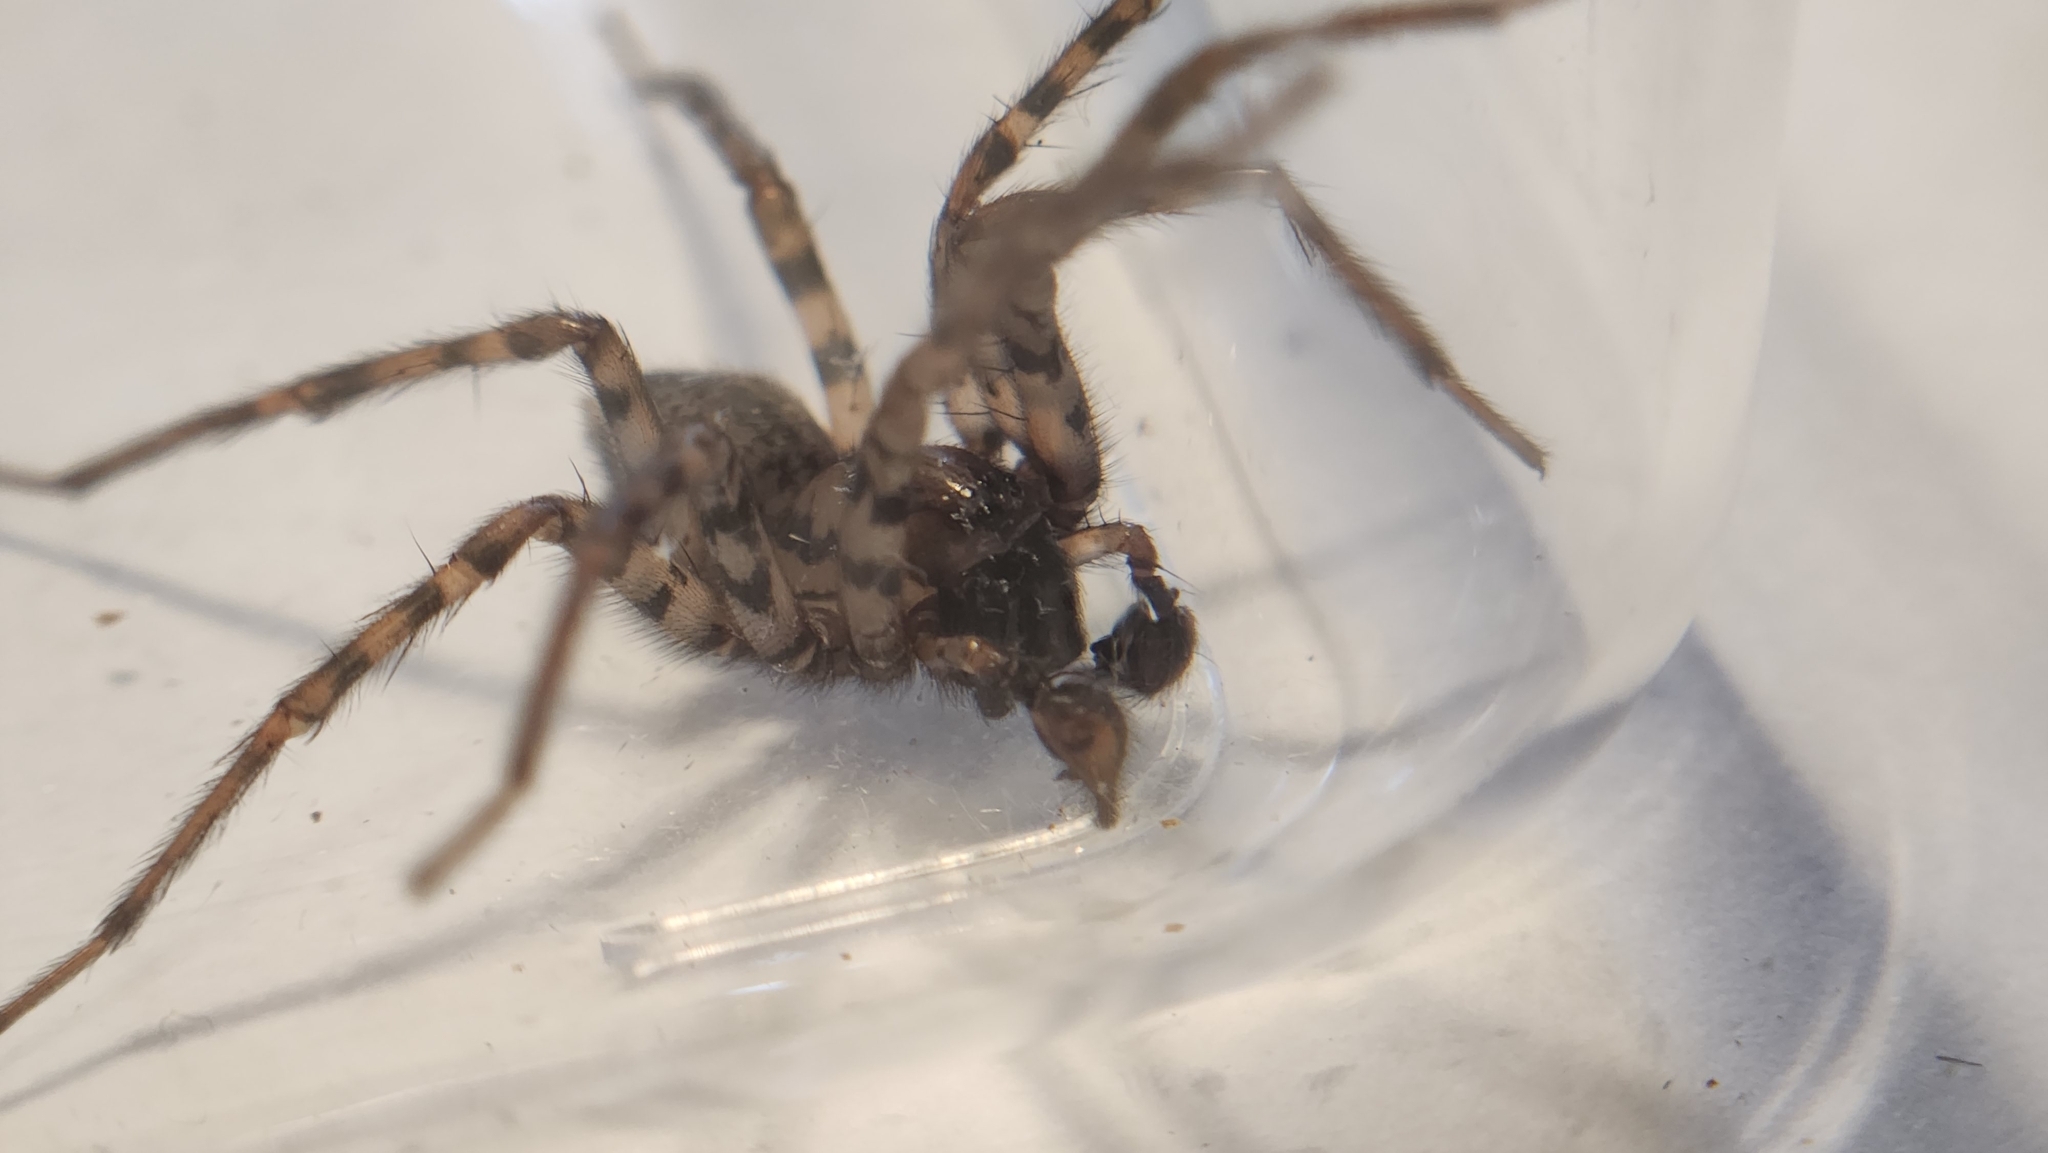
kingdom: Animalia
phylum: Arthropoda
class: Arachnida
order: Araneae
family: Agelenidae
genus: Coras
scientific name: Coras
